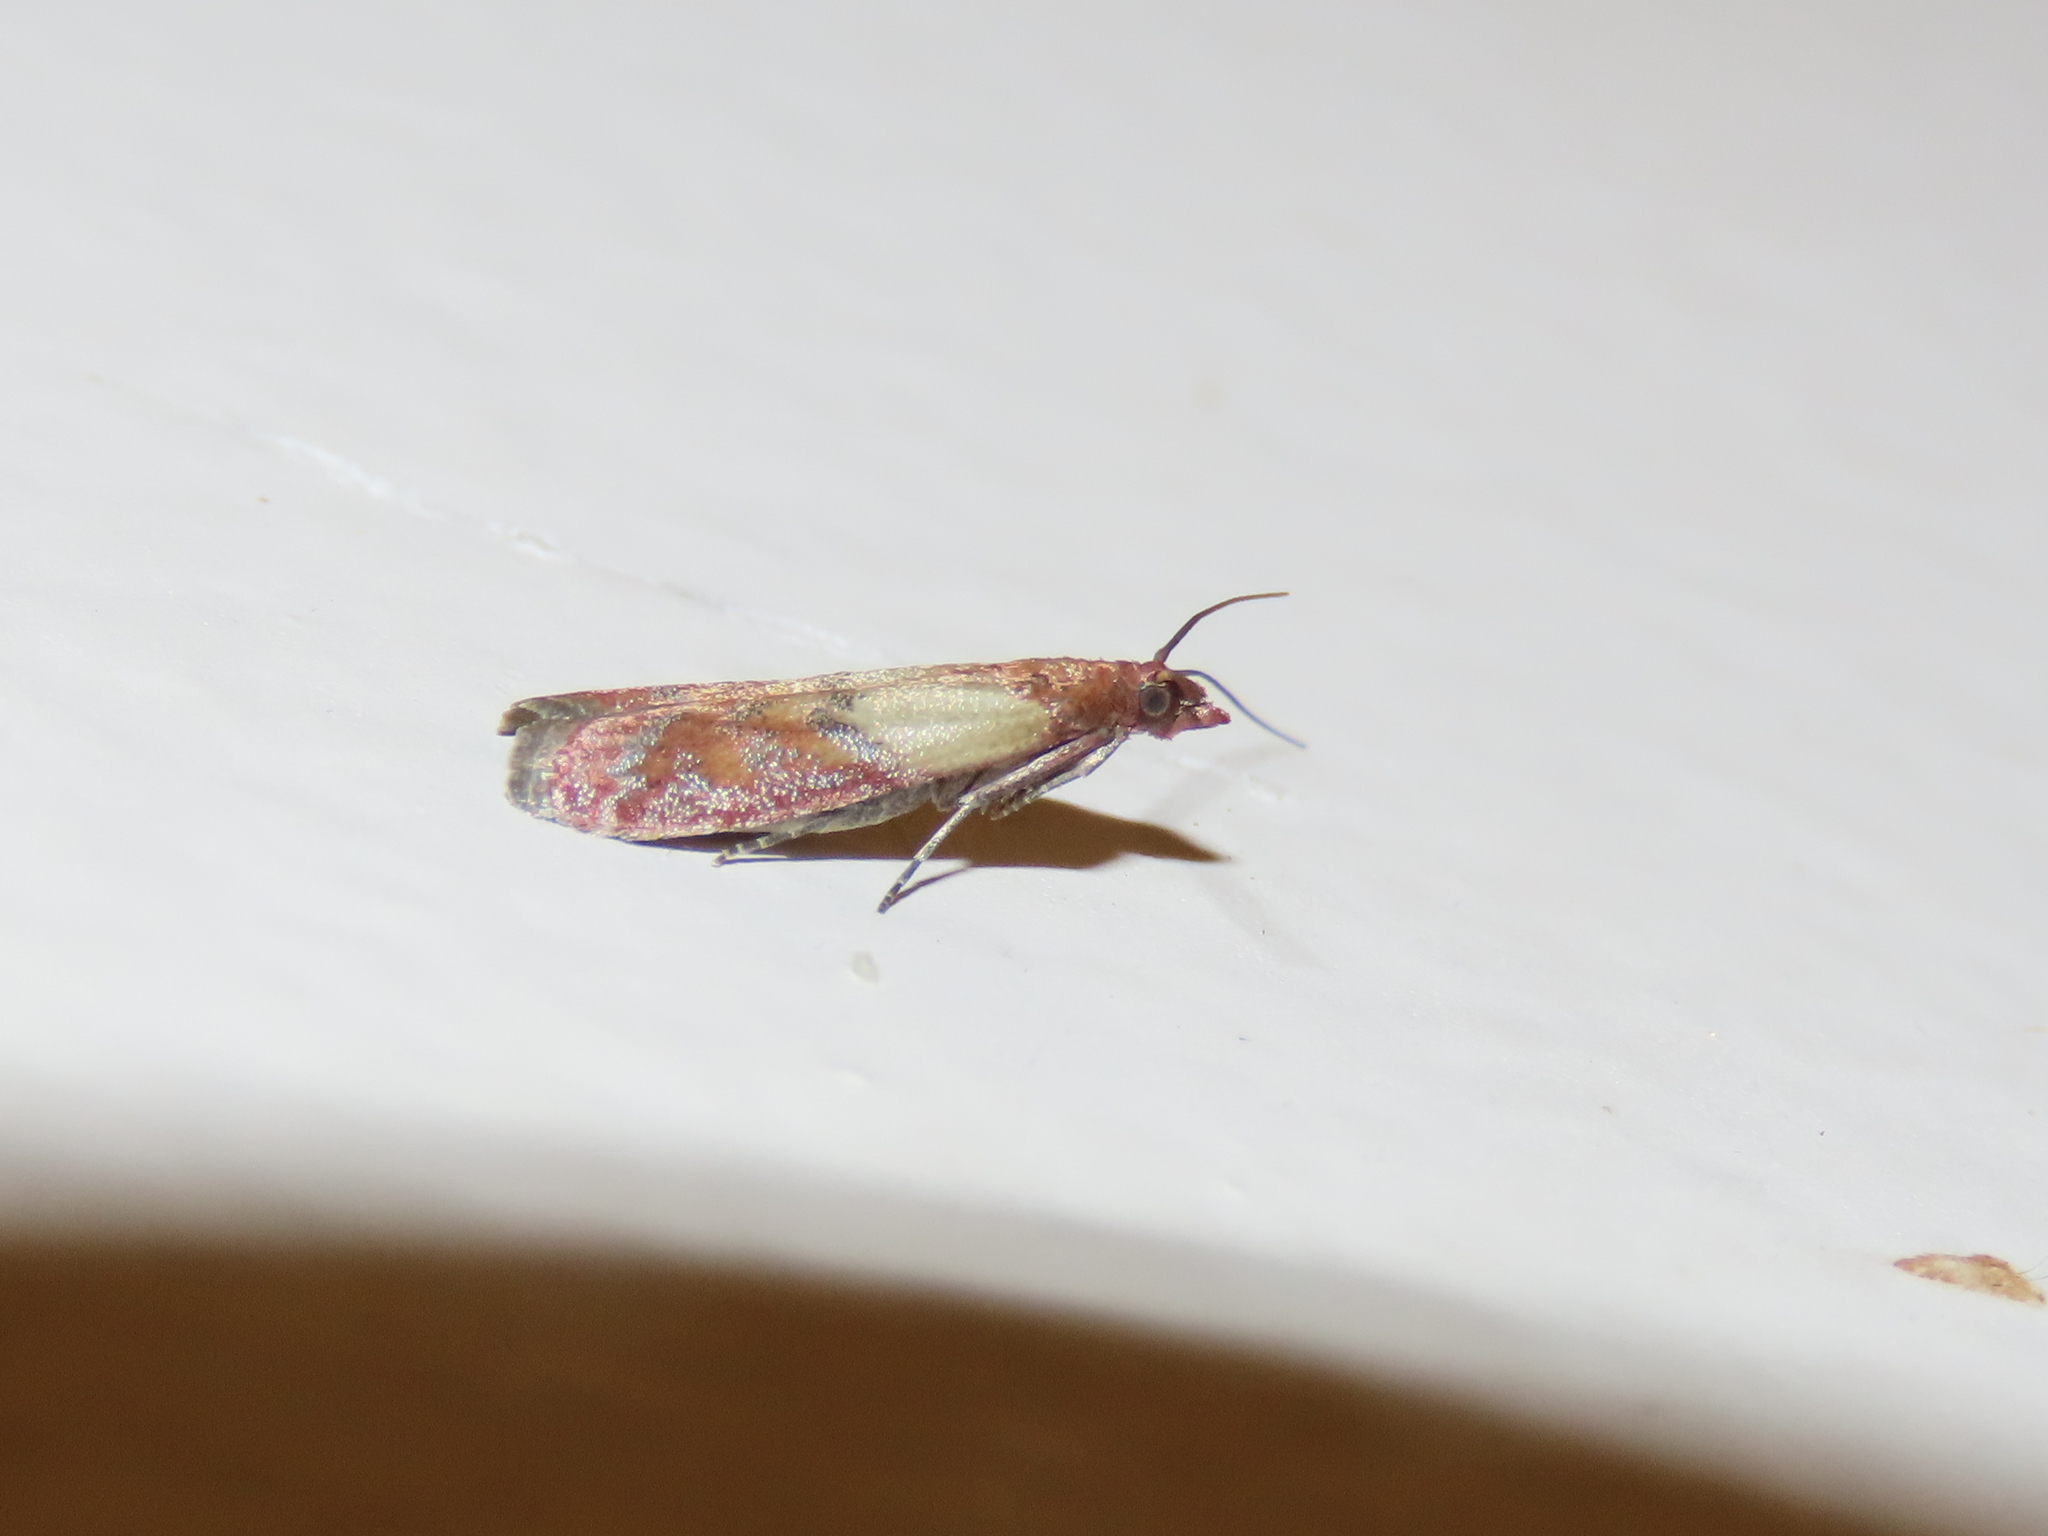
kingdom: Animalia
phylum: Arthropoda
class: Insecta
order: Lepidoptera
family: Pyralidae
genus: Plodia
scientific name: Plodia interpunctella
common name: Indian meal moth
